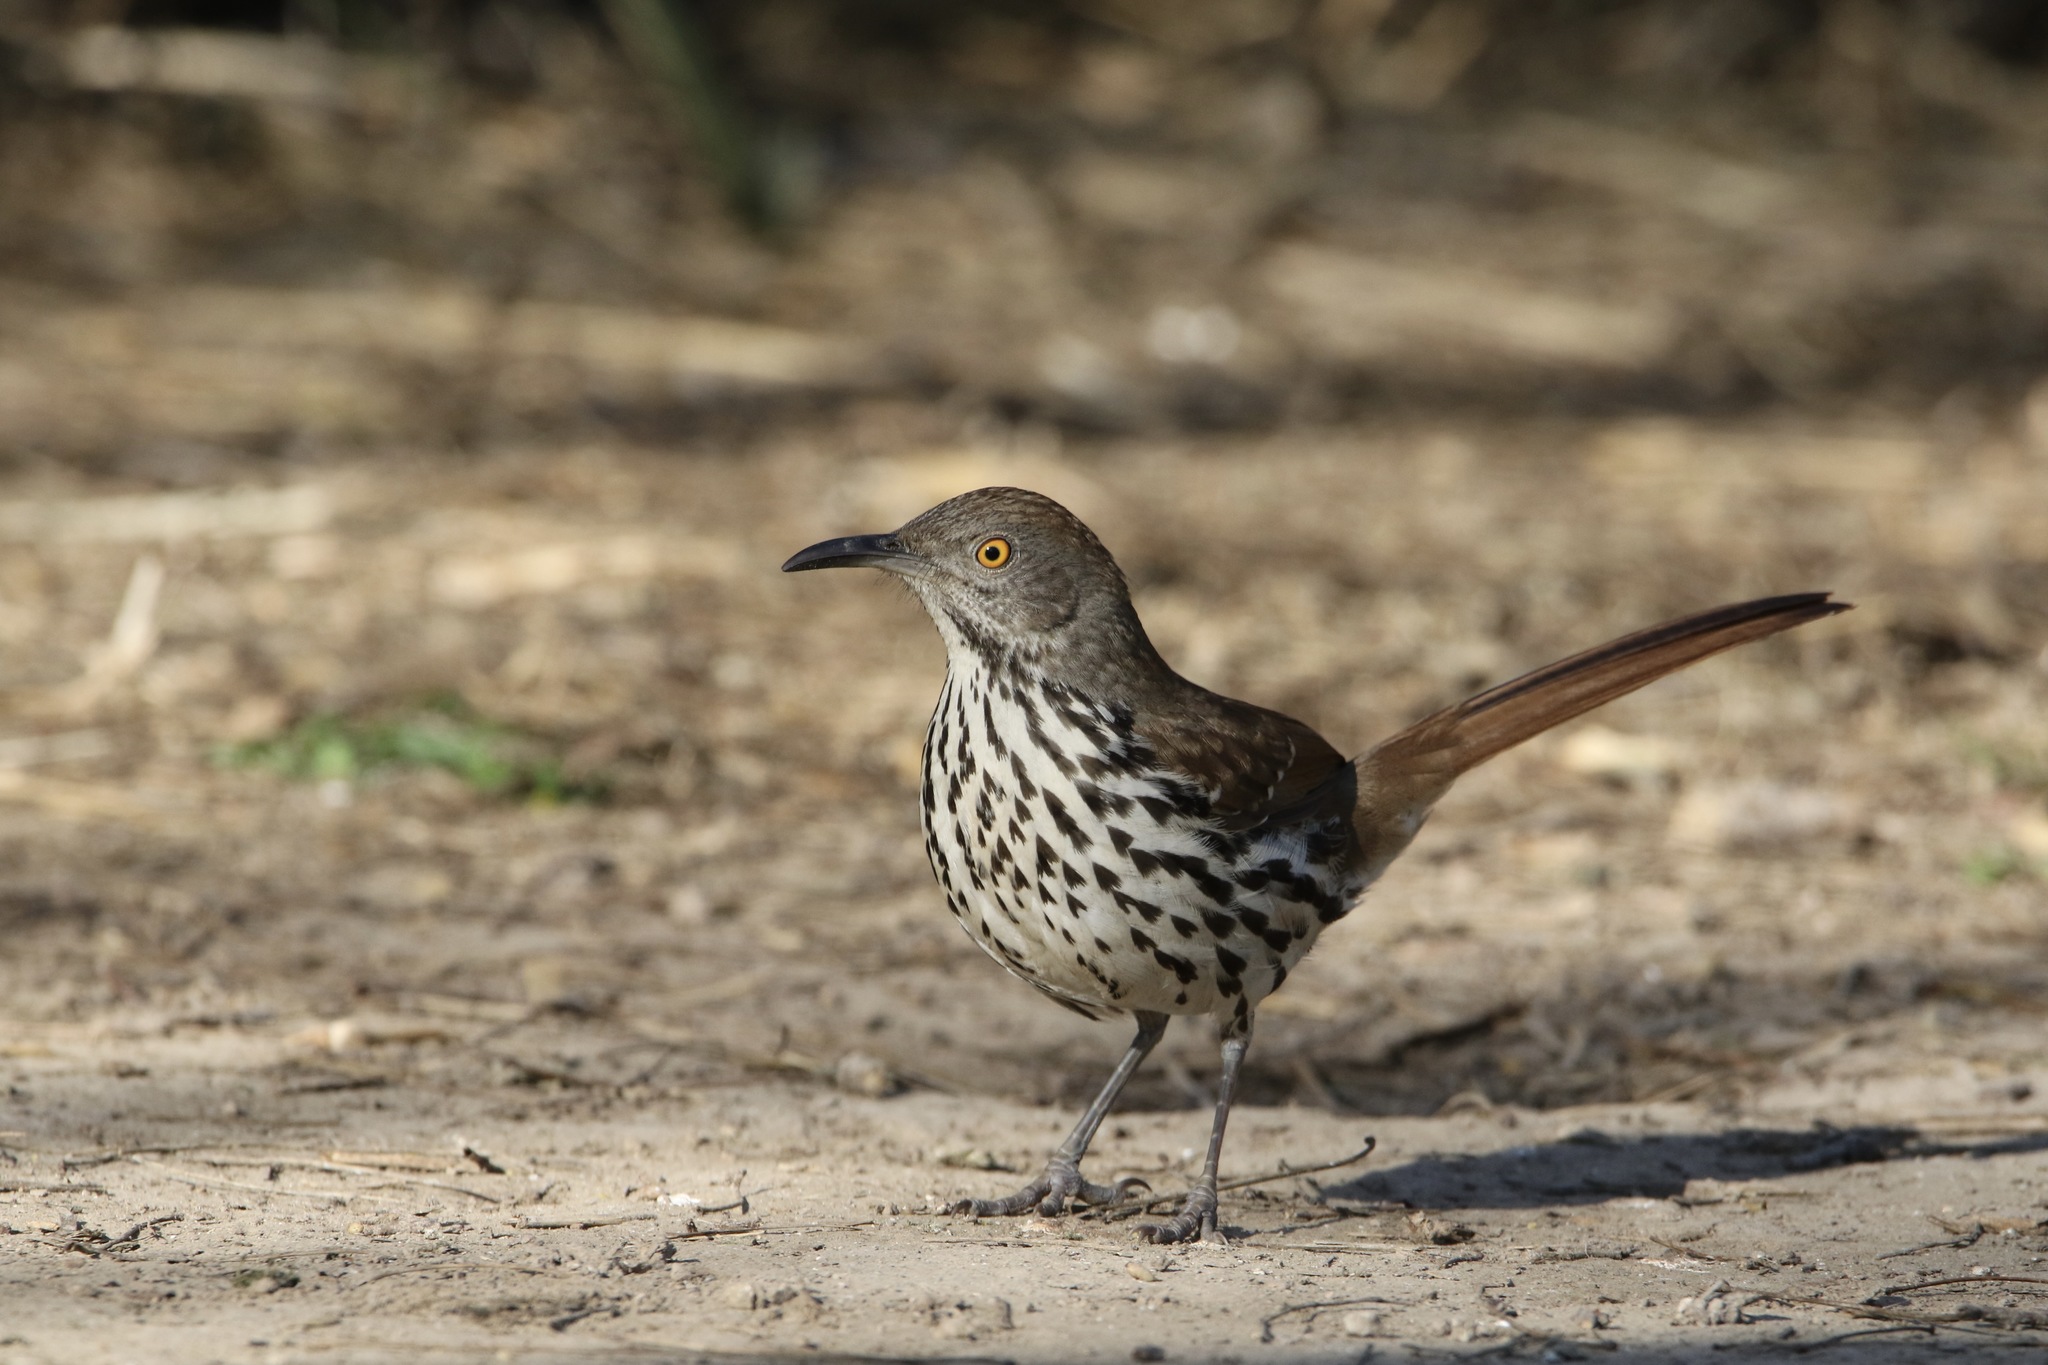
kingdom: Animalia
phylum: Chordata
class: Aves
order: Passeriformes
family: Mimidae
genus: Toxostoma
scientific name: Toxostoma longirostre
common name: Long-billed thrasher
